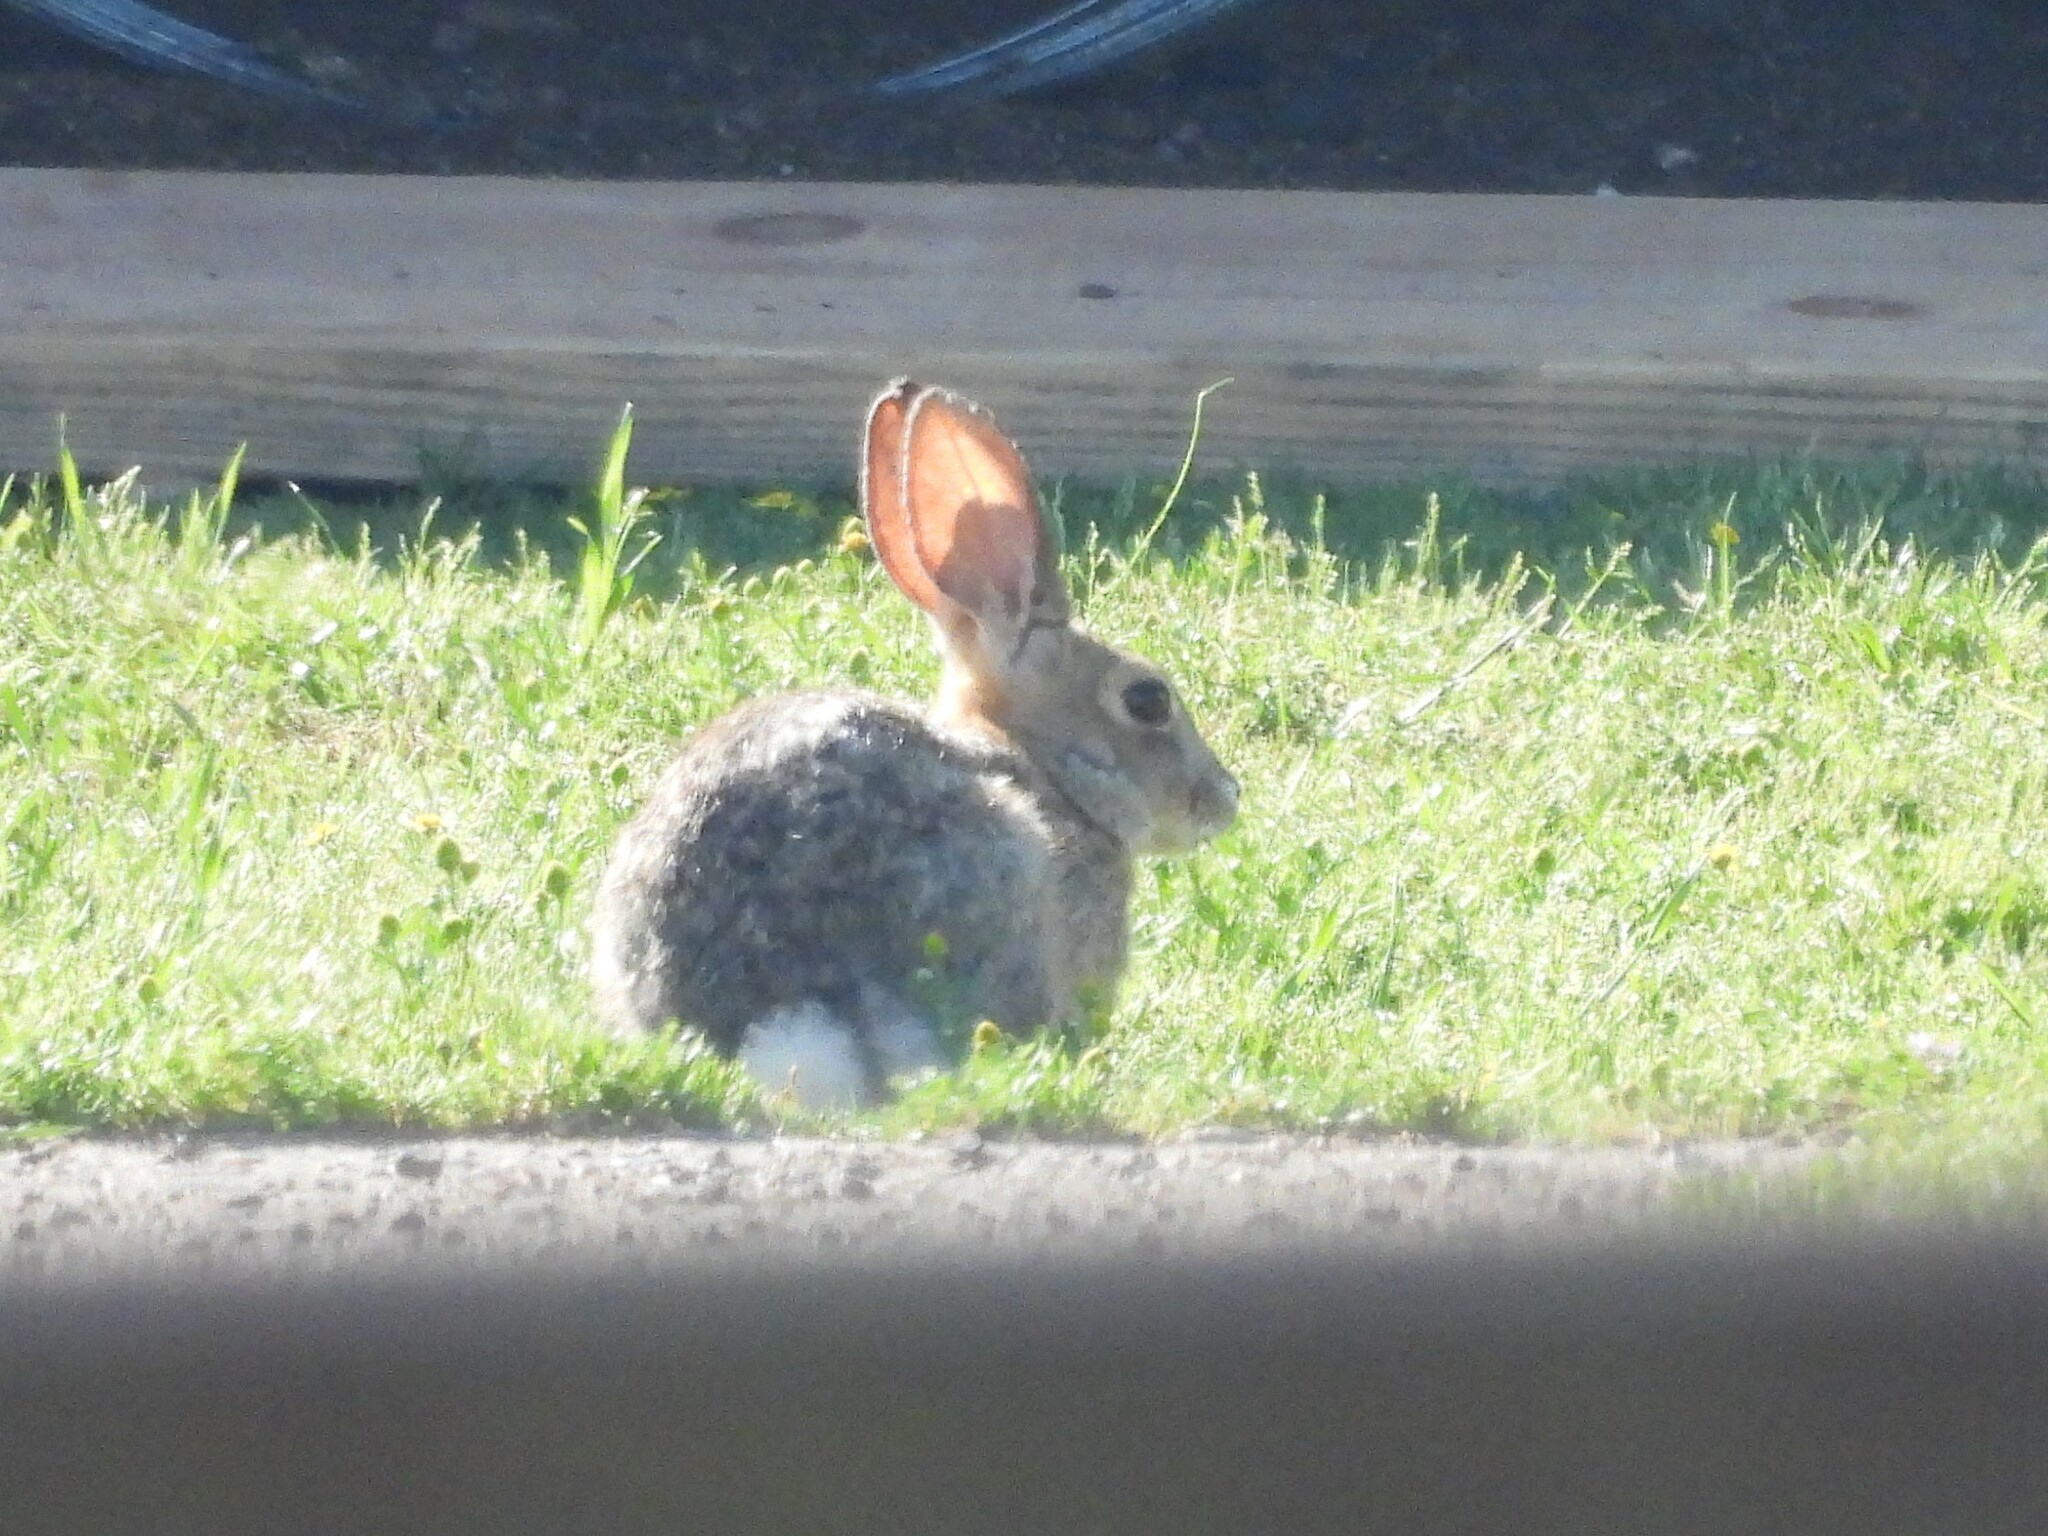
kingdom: Animalia
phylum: Chordata
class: Mammalia
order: Lagomorpha
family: Leporidae
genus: Sylvilagus
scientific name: Sylvilagus audubonii
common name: Desert cottontail
